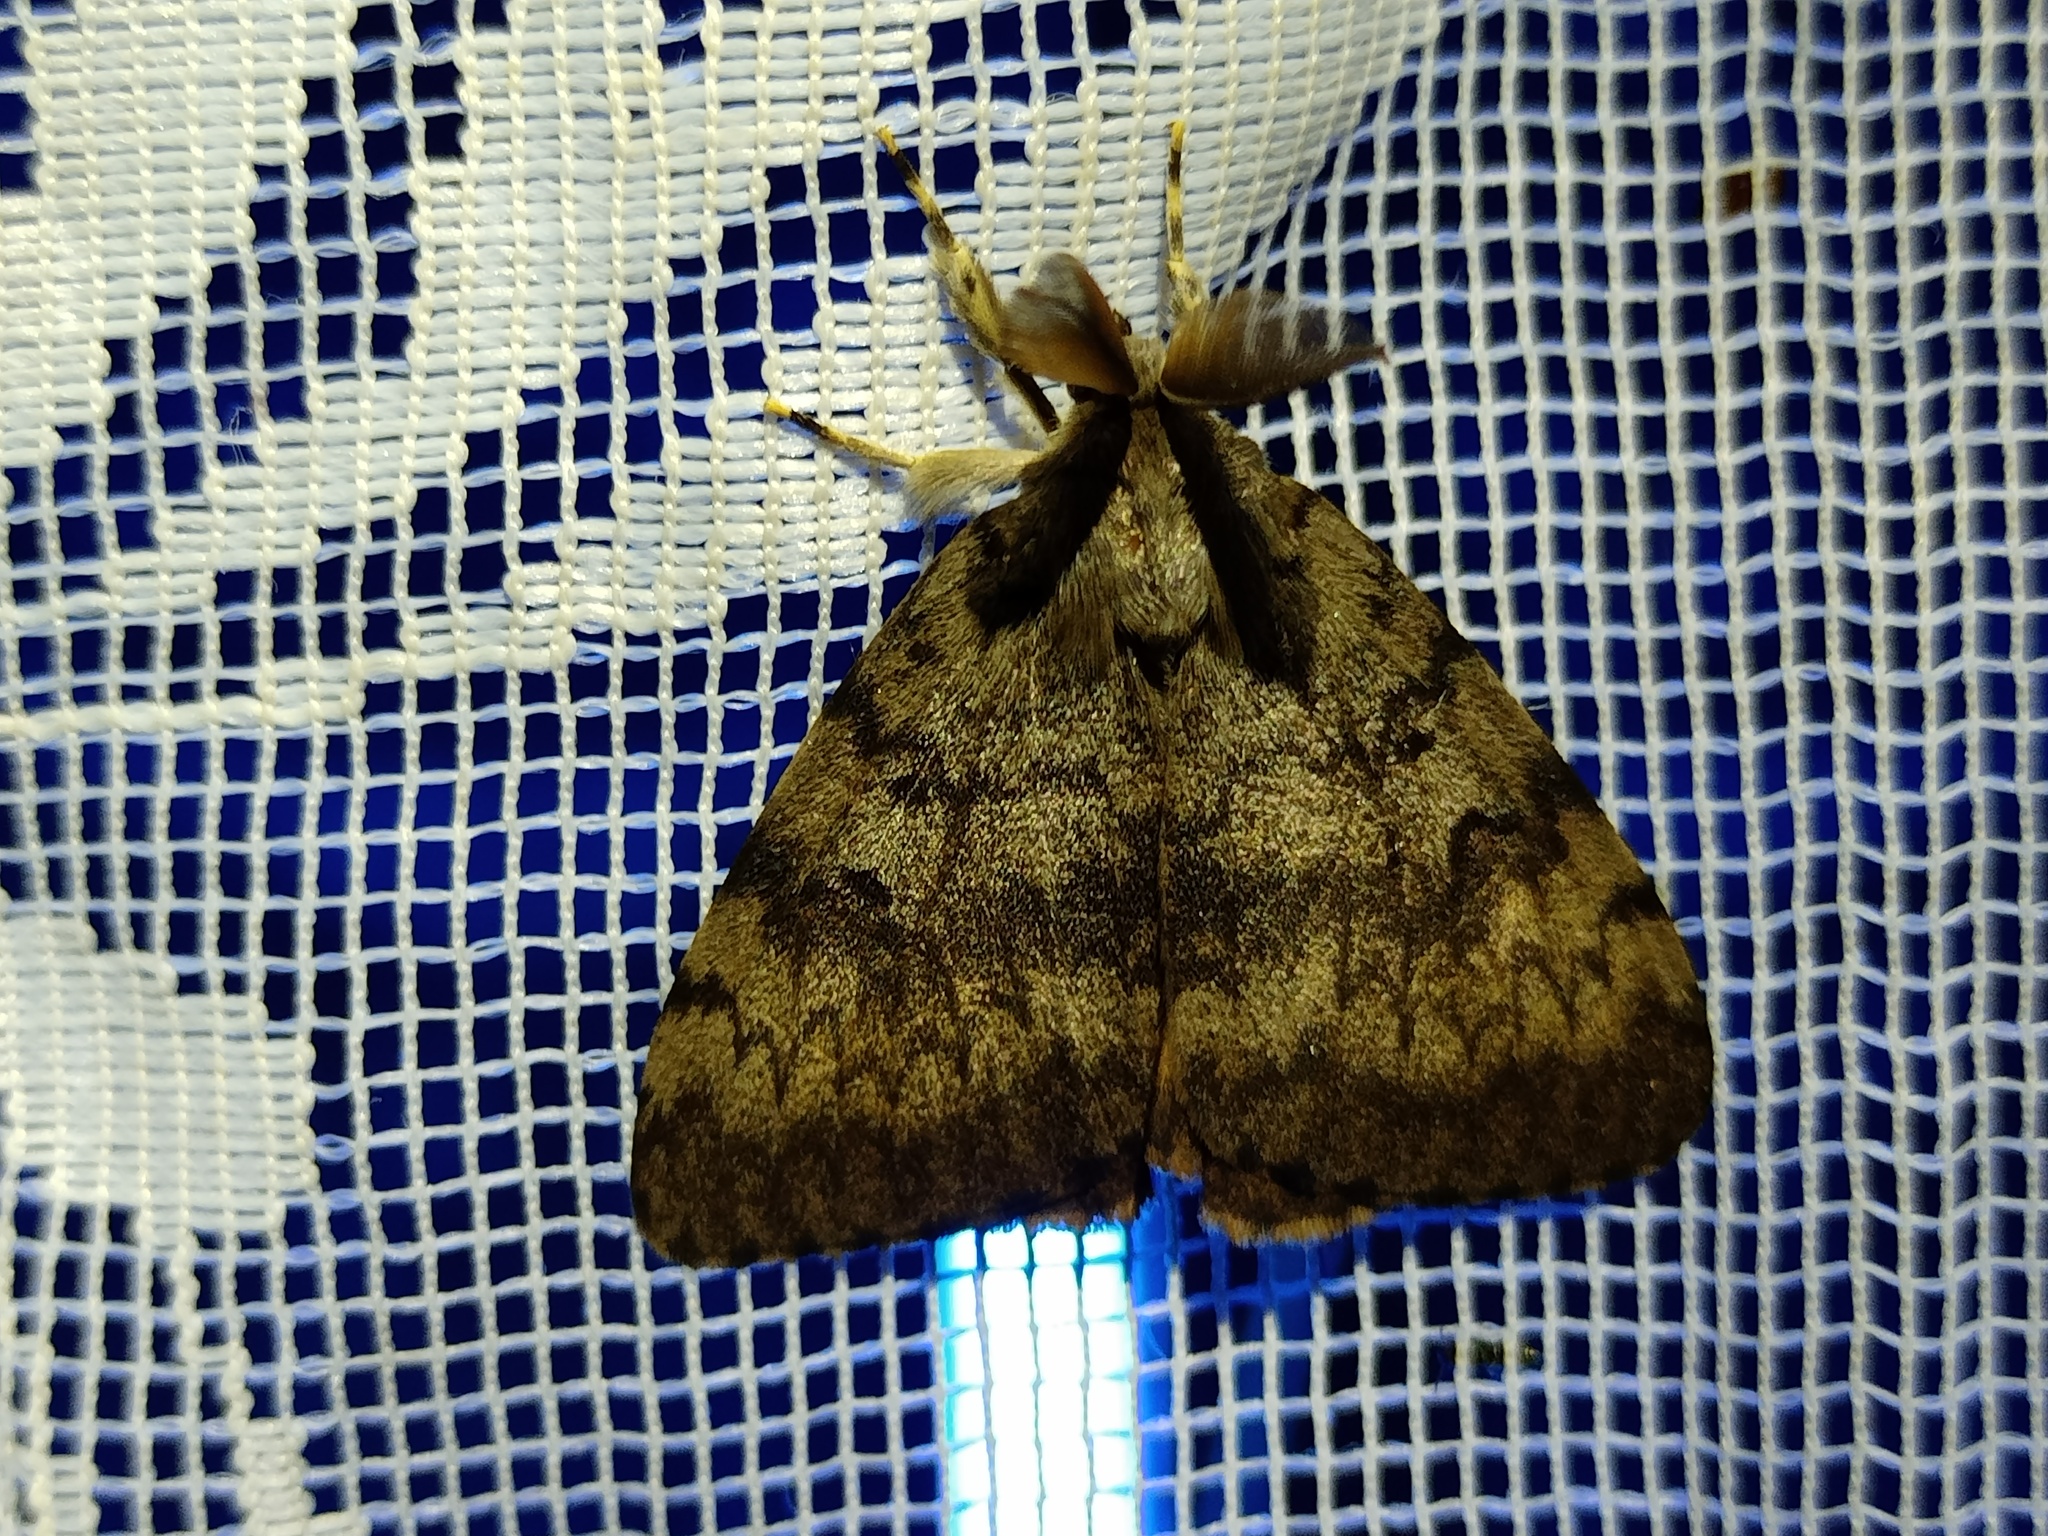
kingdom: Animalia
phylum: Arthropoda
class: Insecta
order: Lepidoptera
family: Erebidae
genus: Lymantria
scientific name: Lymantria dispar
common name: Gypsy moth
